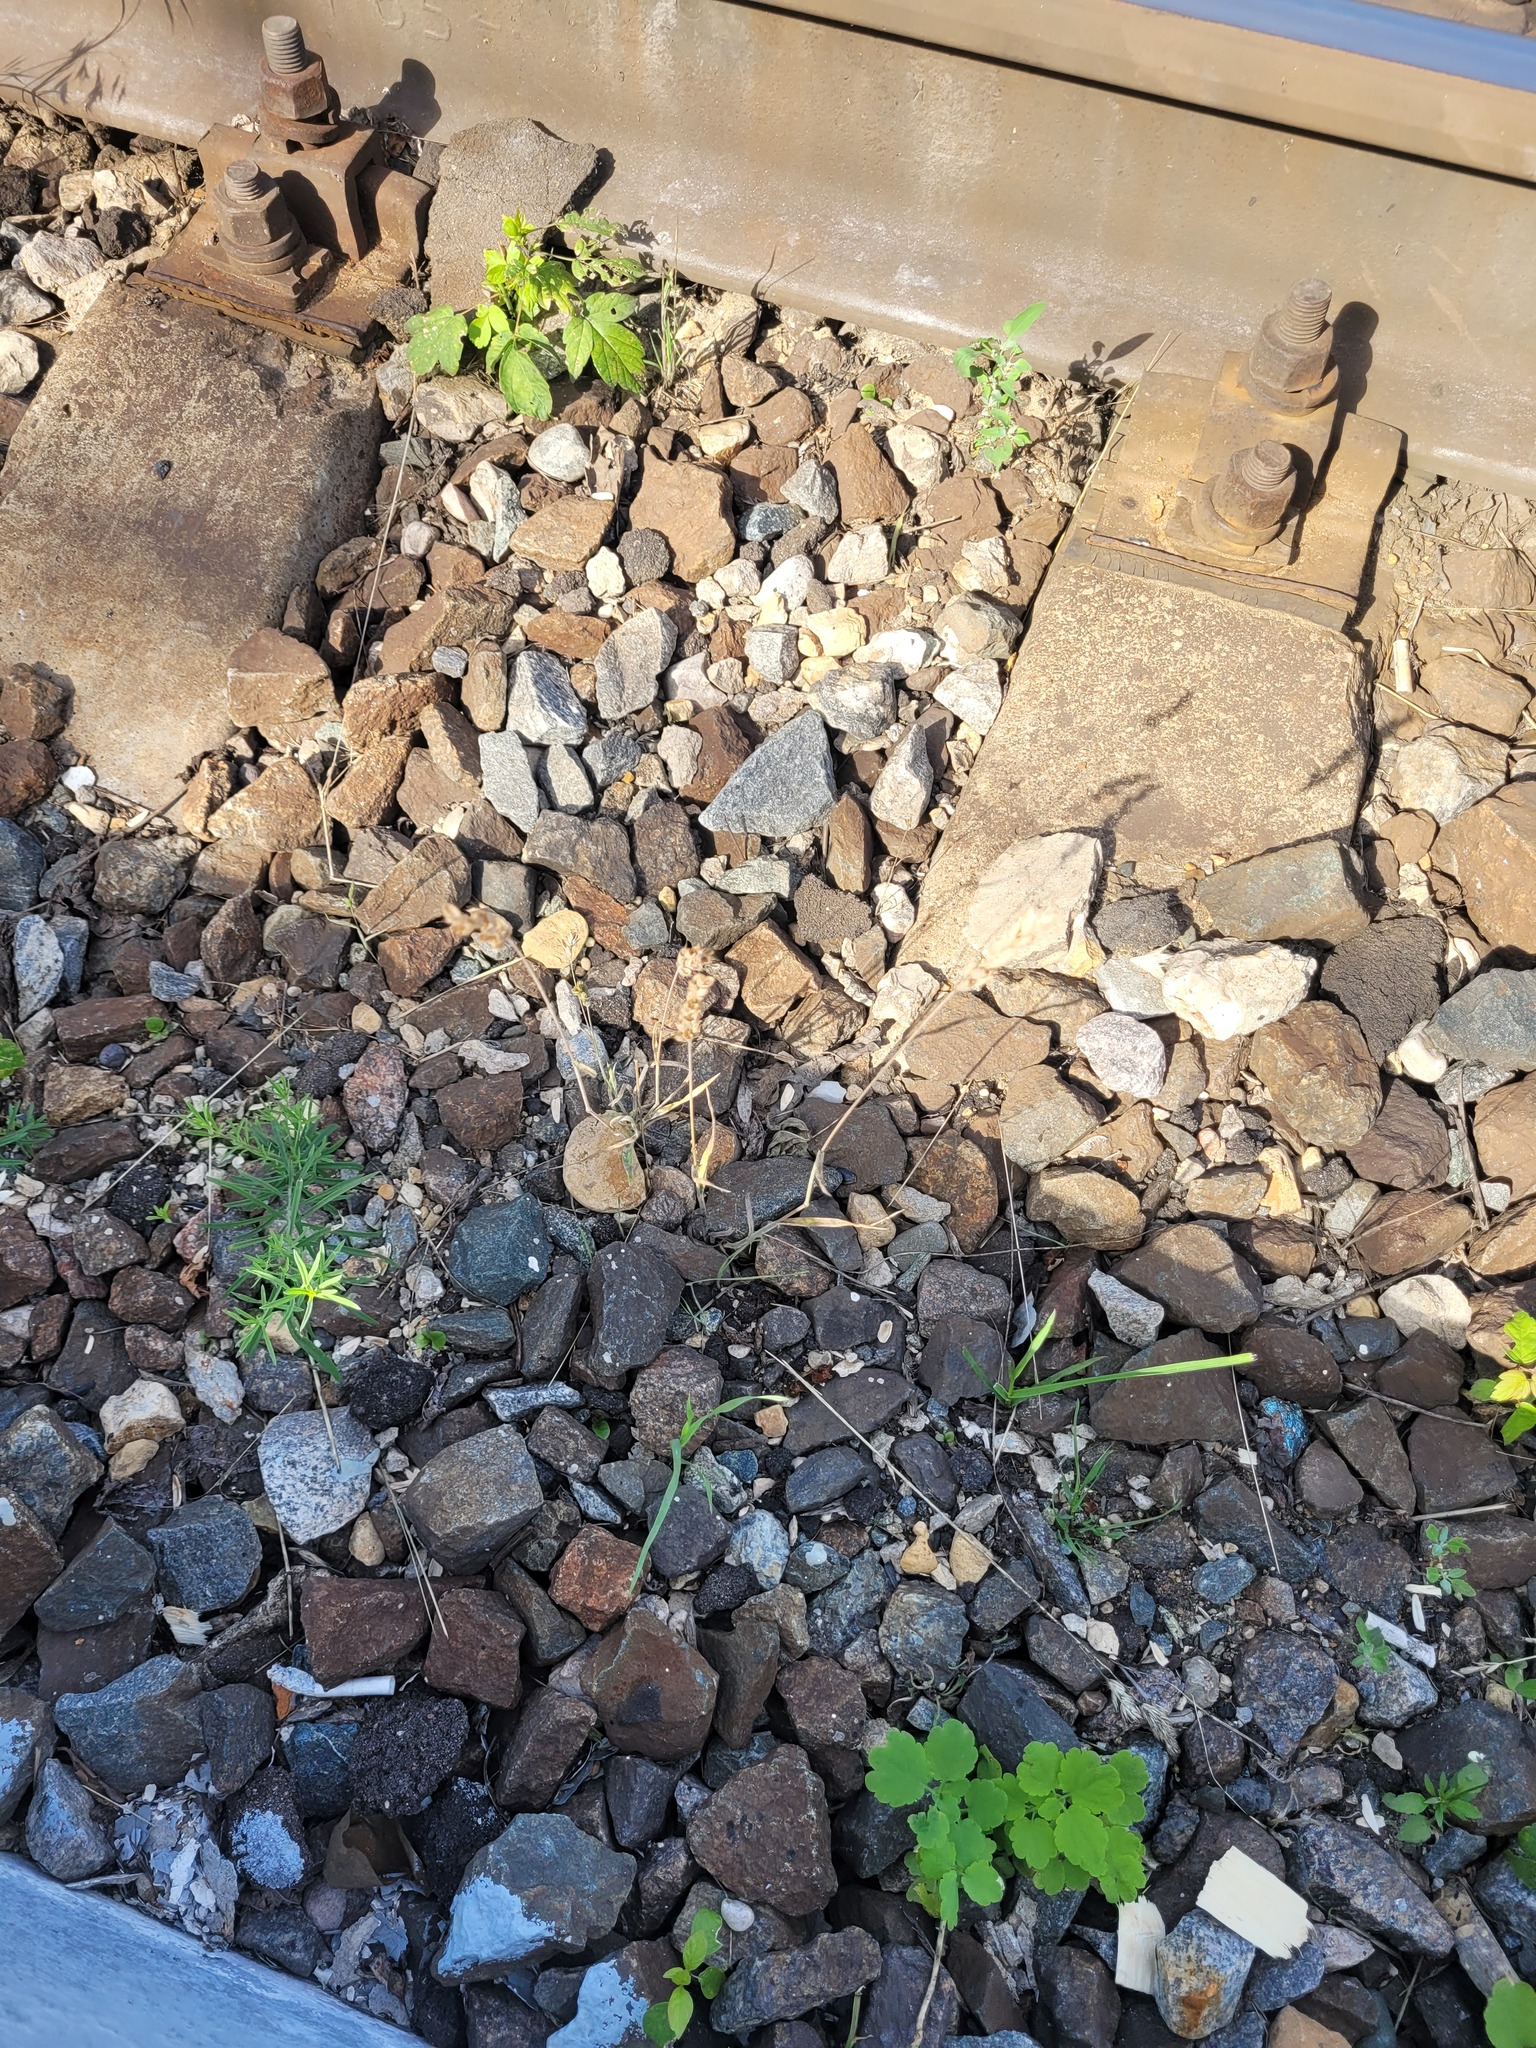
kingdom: Plantae
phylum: Tracheophyta
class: Liliopsida
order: Poales
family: Poaceae
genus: Bromus
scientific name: Bromus hordeaceus
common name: Soft brome
